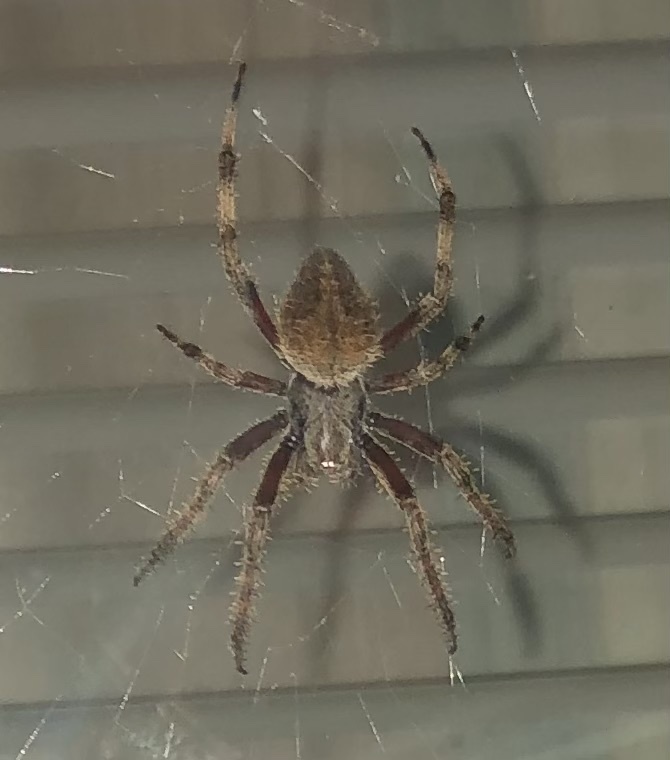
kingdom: Animalia
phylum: Arthropoda
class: Arachnida
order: Araneae
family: Araneidae
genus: Neoscona
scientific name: Neoscona crucifera
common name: Spotted orbweaver
